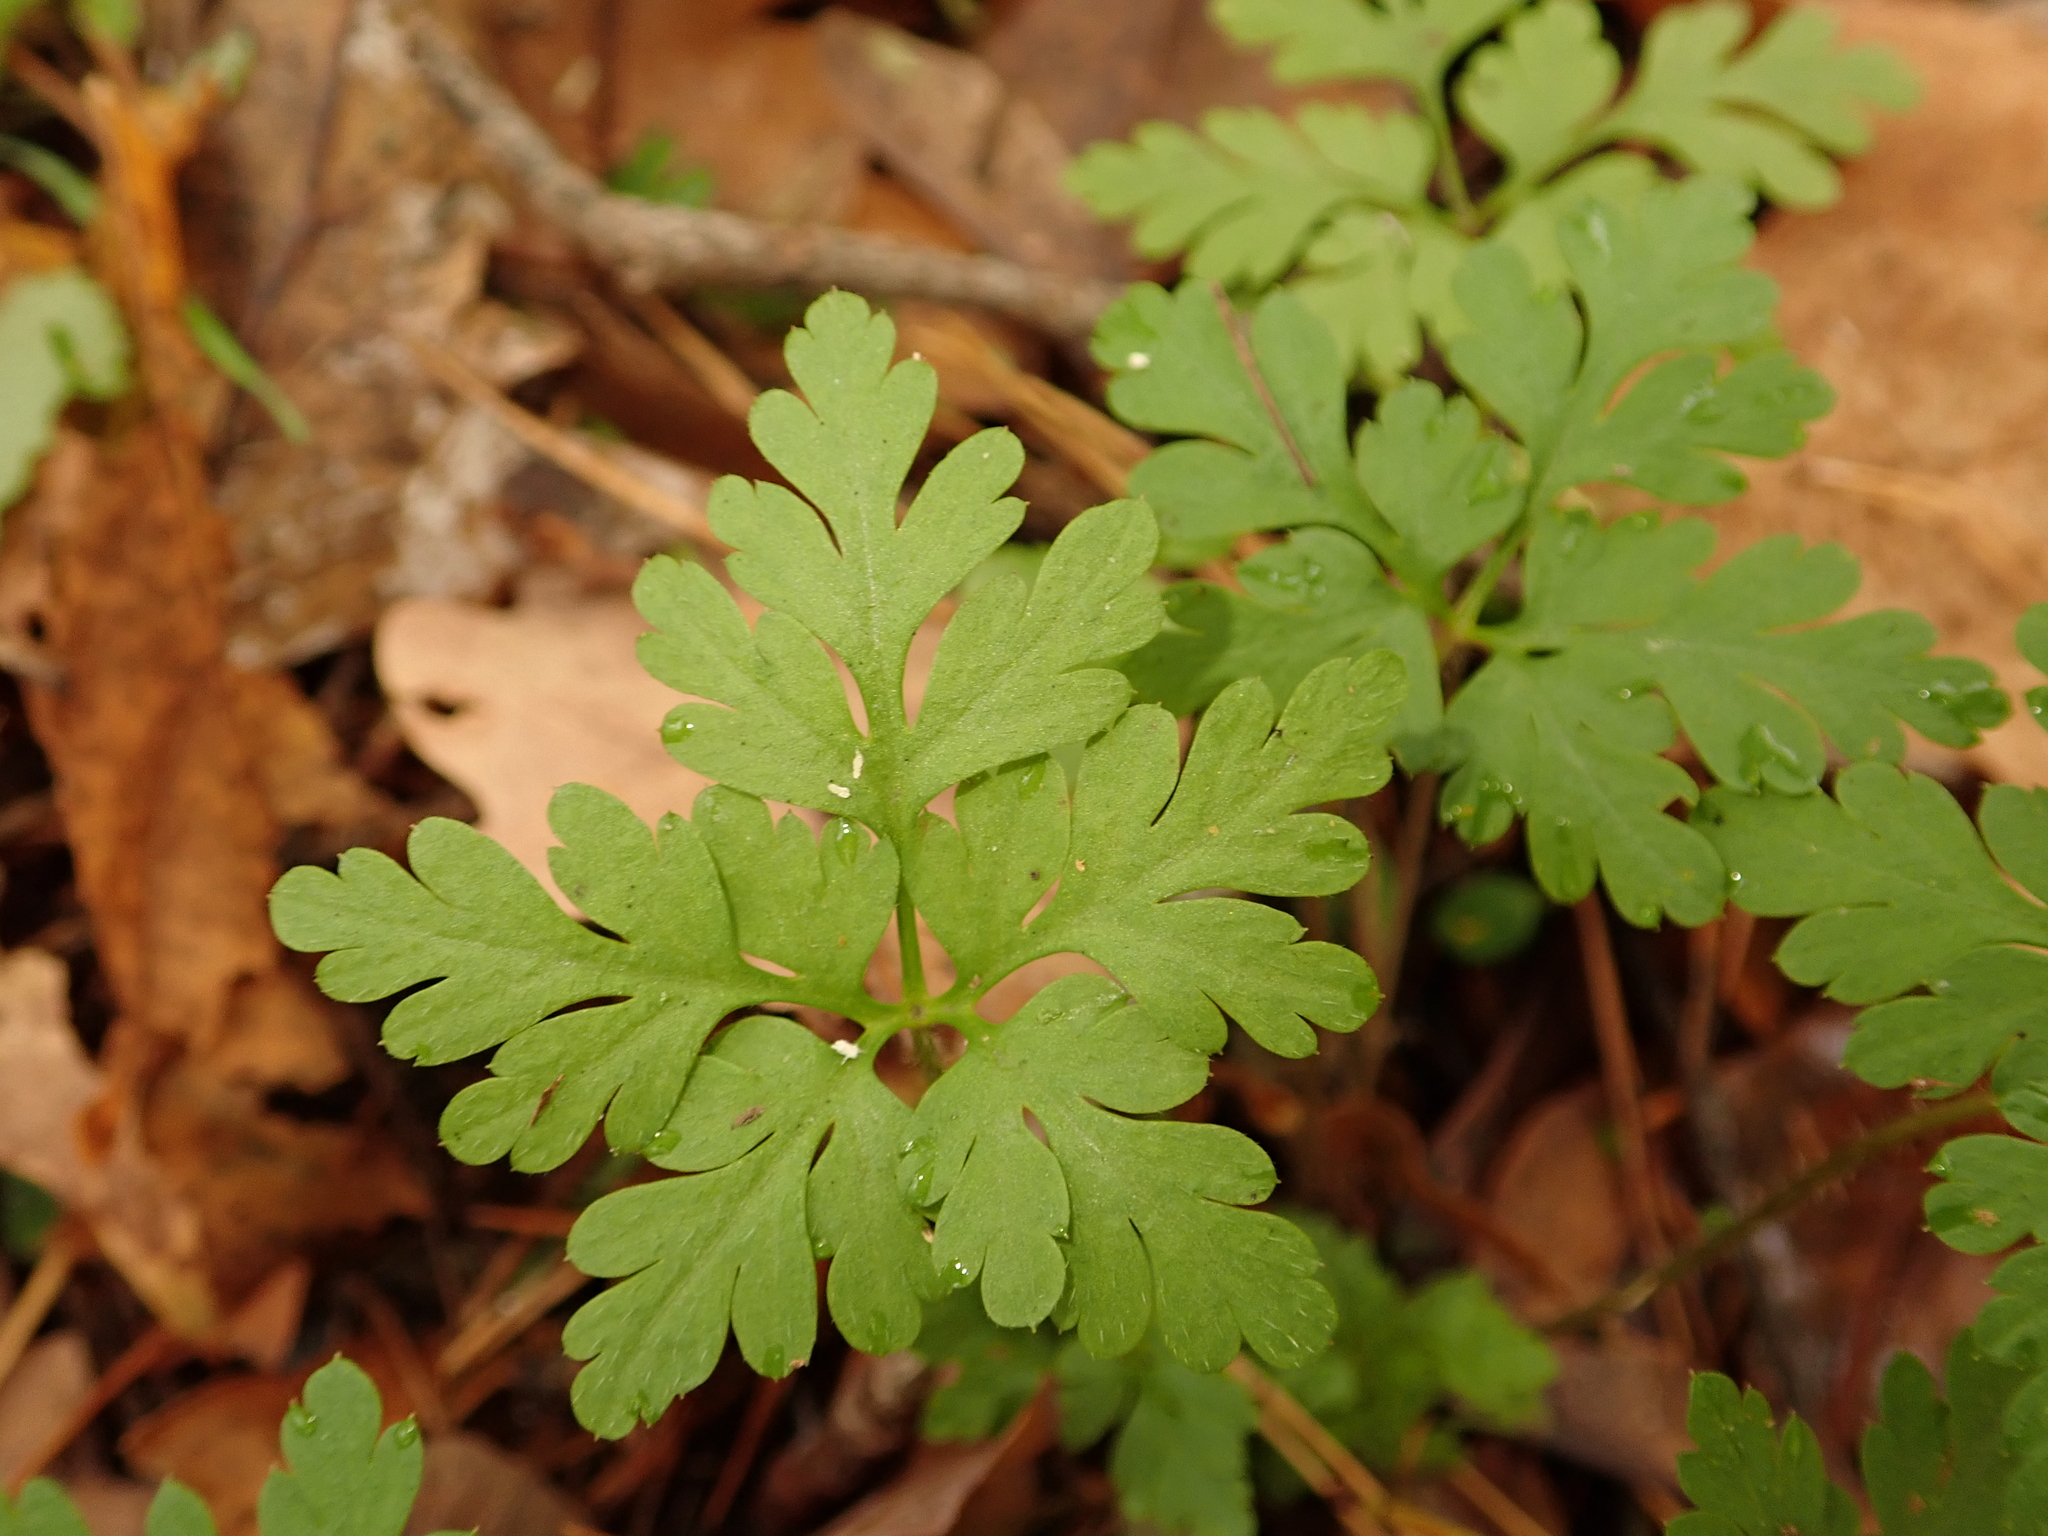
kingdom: Plantae
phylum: Tracheophyta
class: Magnoliopsida
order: Geraniales
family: Geraniaceae
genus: Geranium
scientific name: Geranium robertianum
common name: Herb-robert
